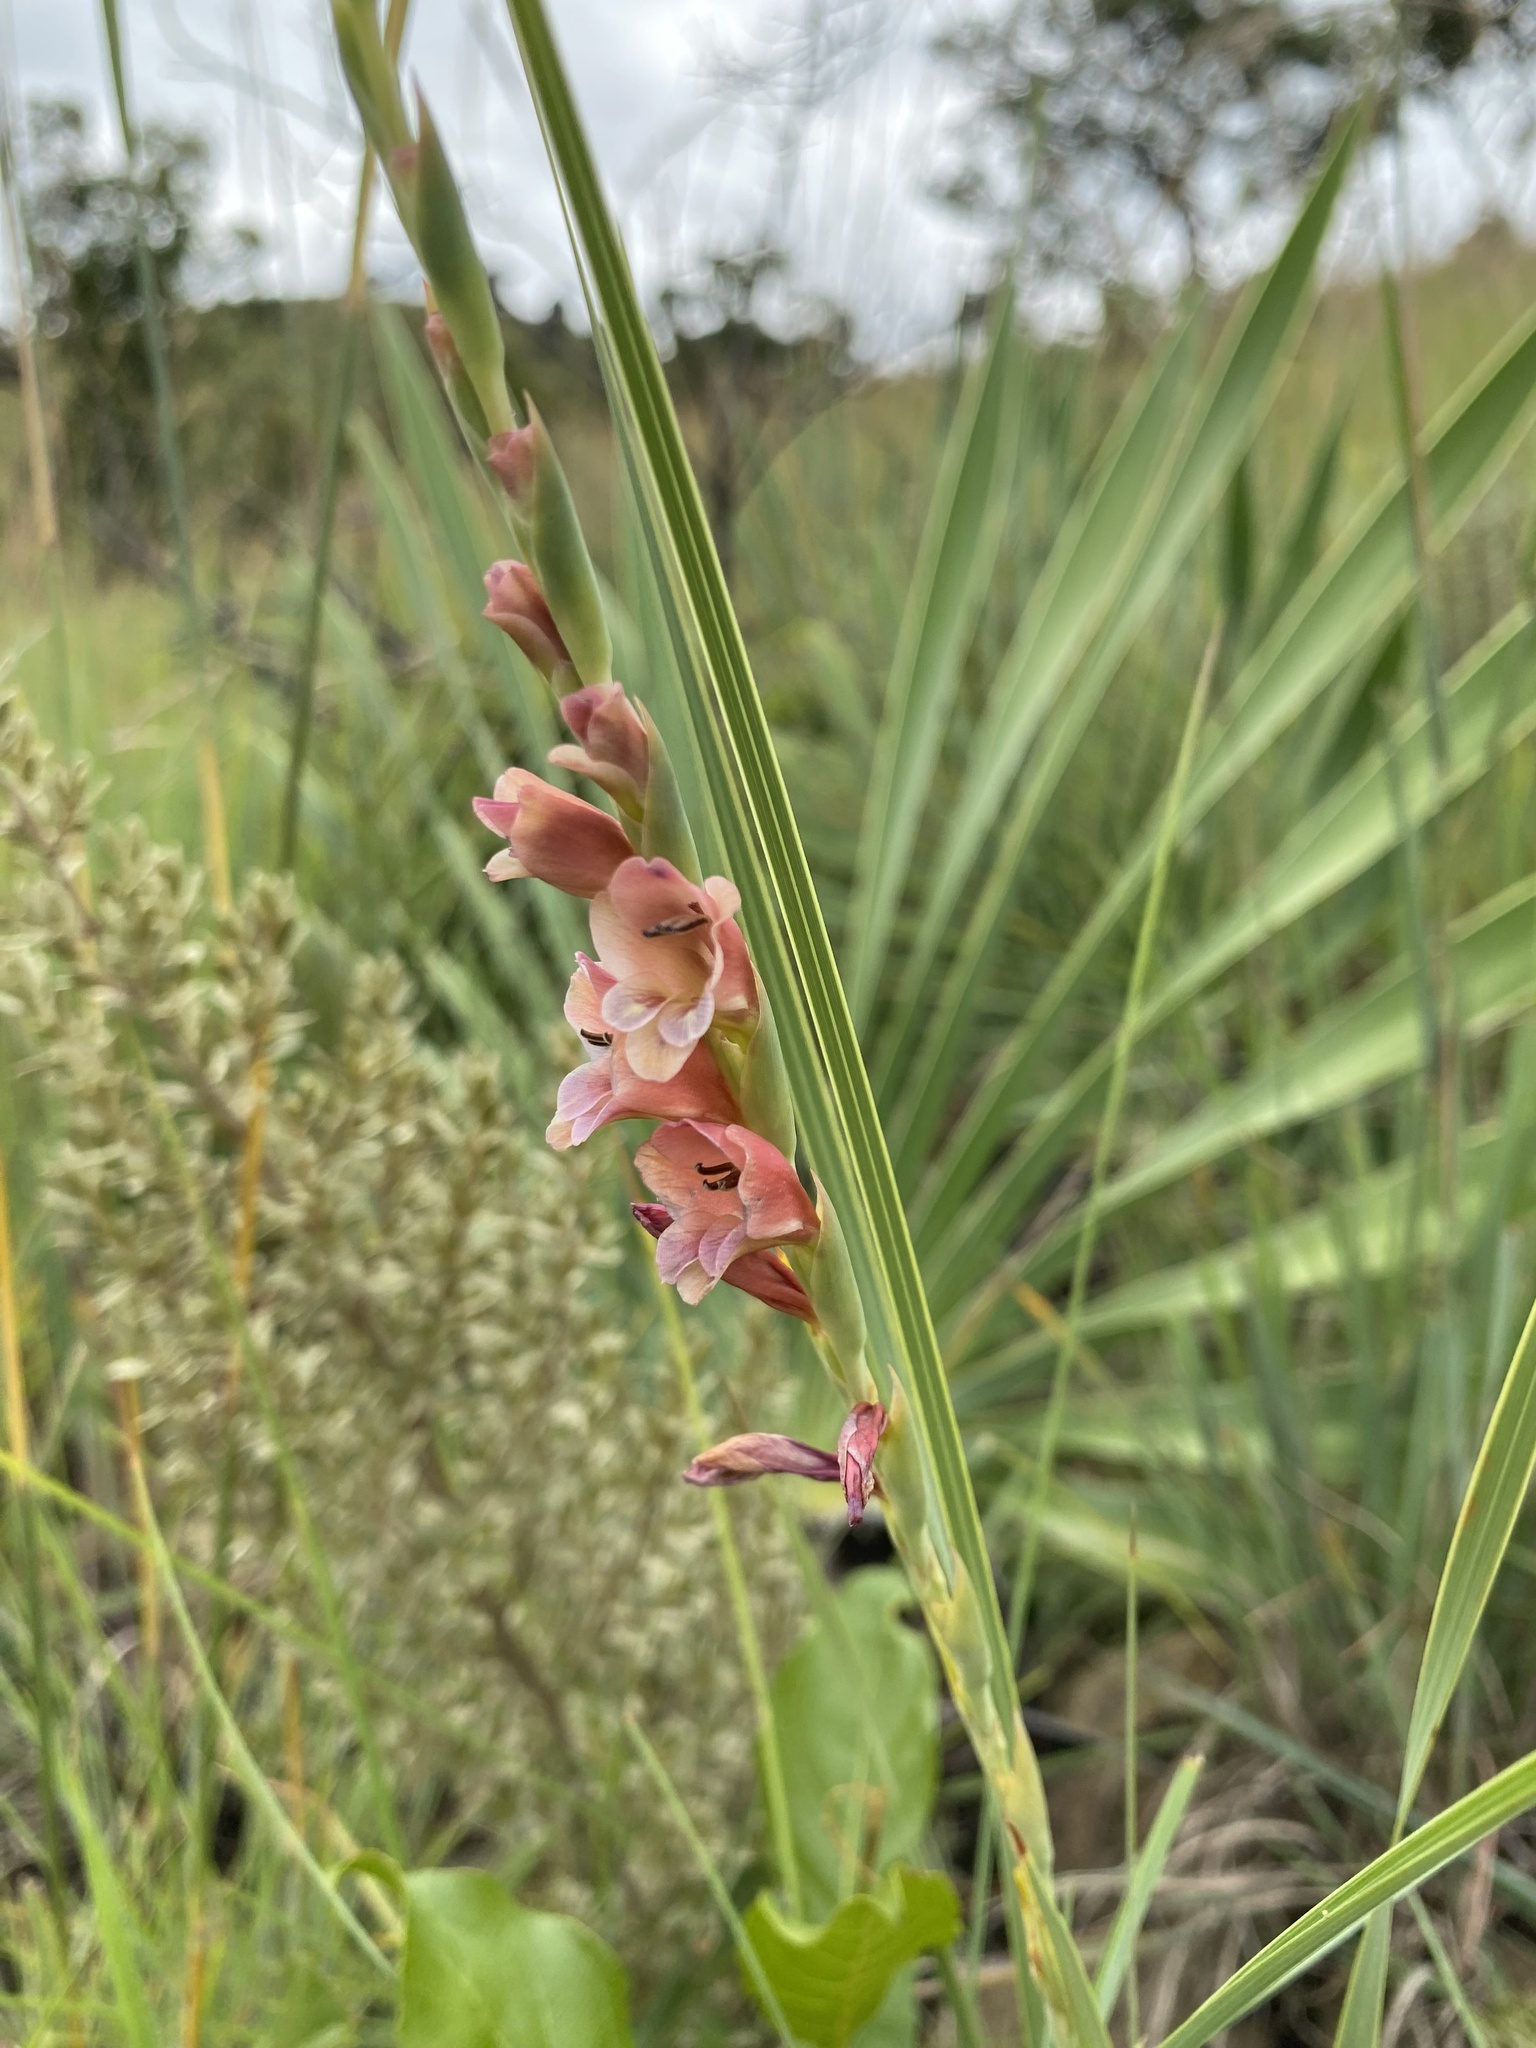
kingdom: Plantae
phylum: Tracheophyta
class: Liliopsida
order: Asparagales
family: Iridaceae
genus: Gladiolus
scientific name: Gladiolus densiflorus
